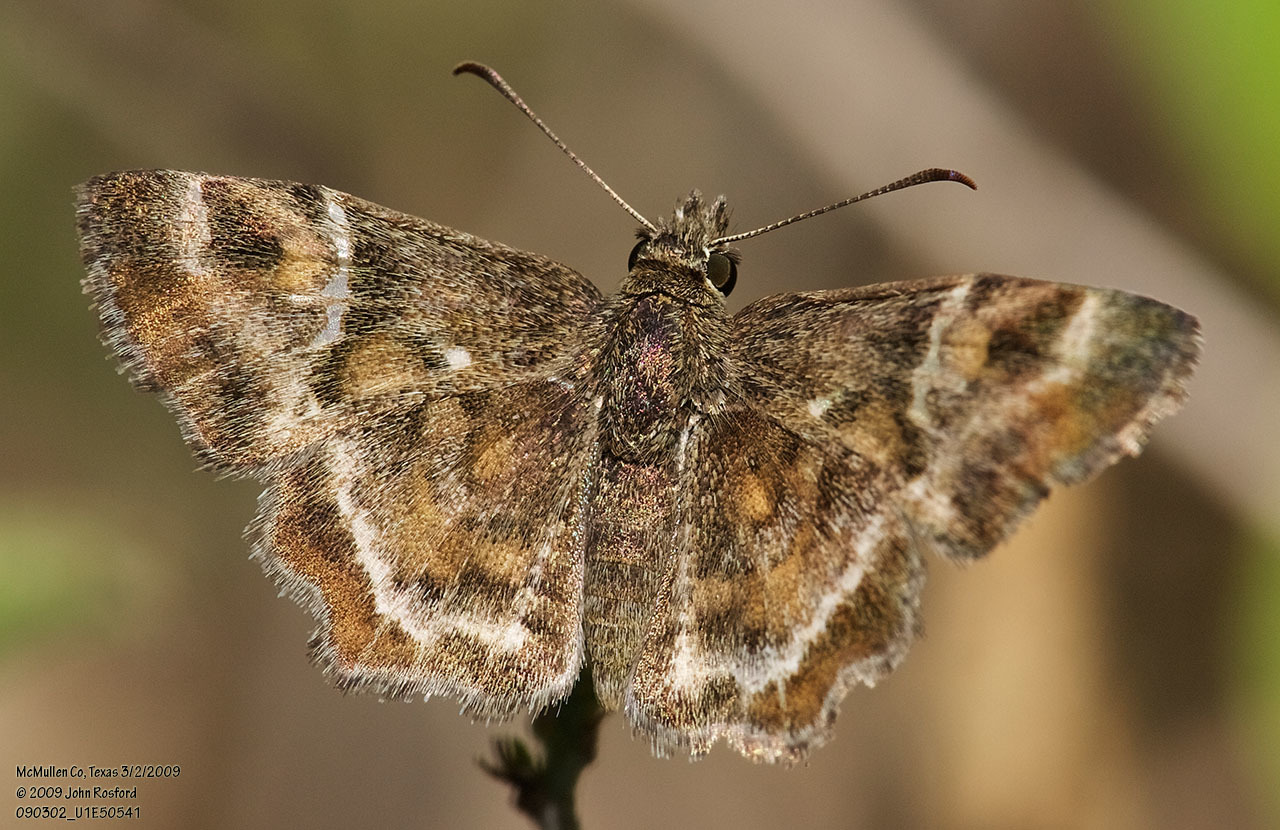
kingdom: Animalia
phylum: Arthropoda
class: Insecta
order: Lepidoptera
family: Hesperiidae
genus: Systasea
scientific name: Systasea pulverulenta
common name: Texas powdered skipper
